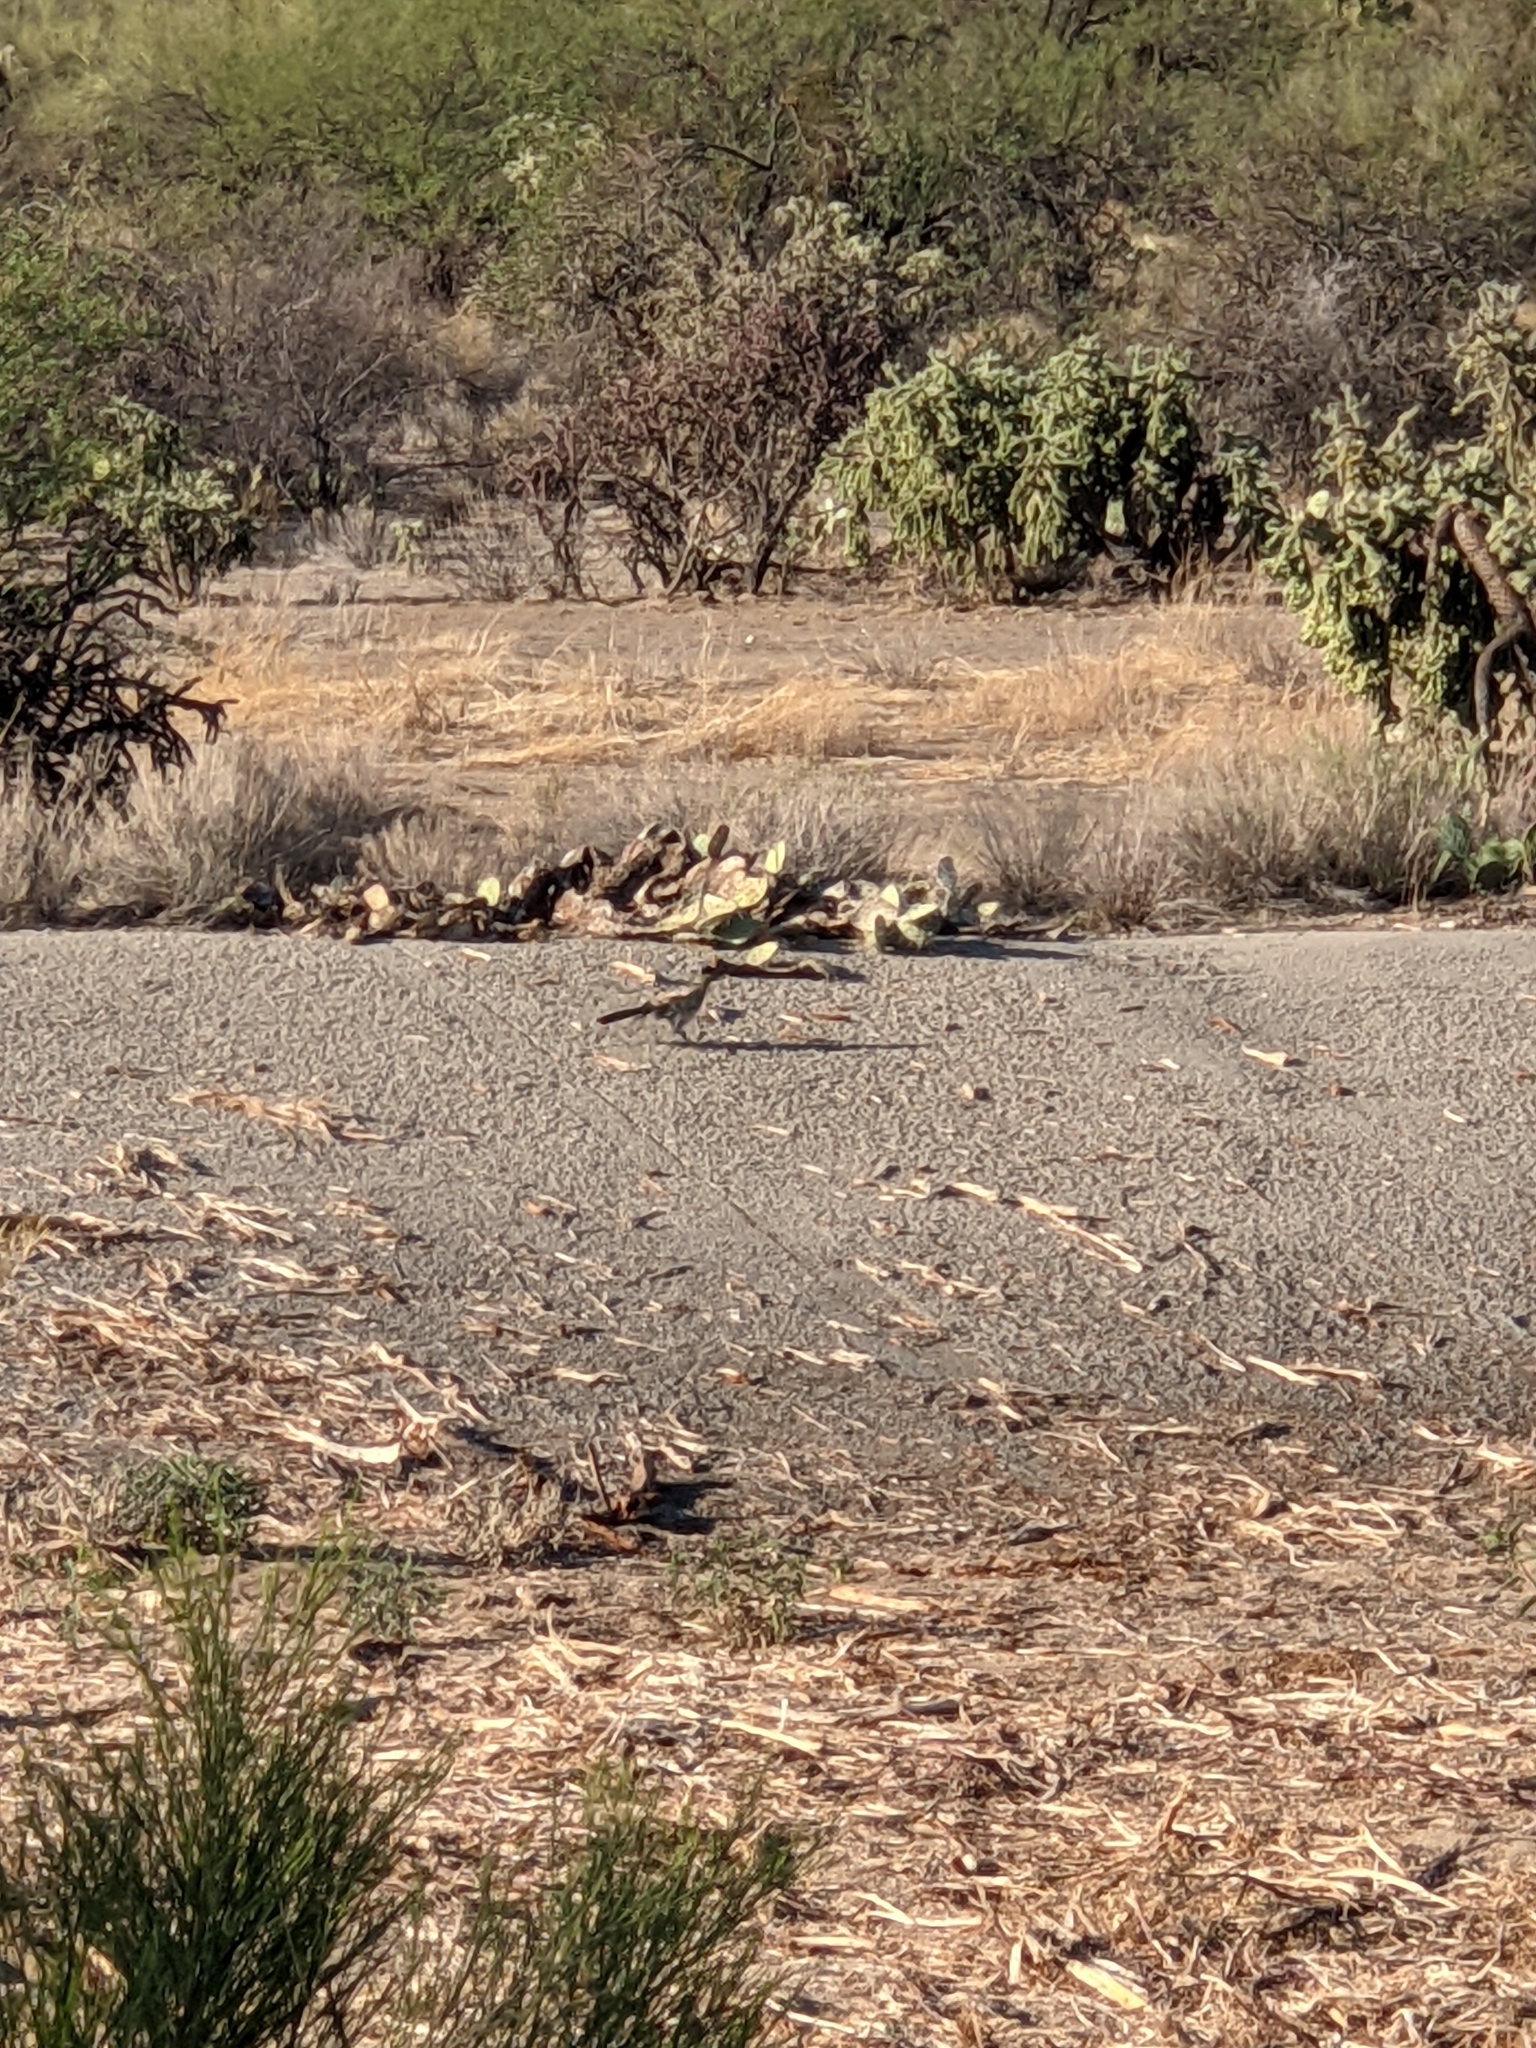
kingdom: Animalia
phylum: Chordata
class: Aves
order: Cuculiformes
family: Cuculidae
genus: Geococcyx
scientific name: Geococcyx californianus
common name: Greater roadrunner
